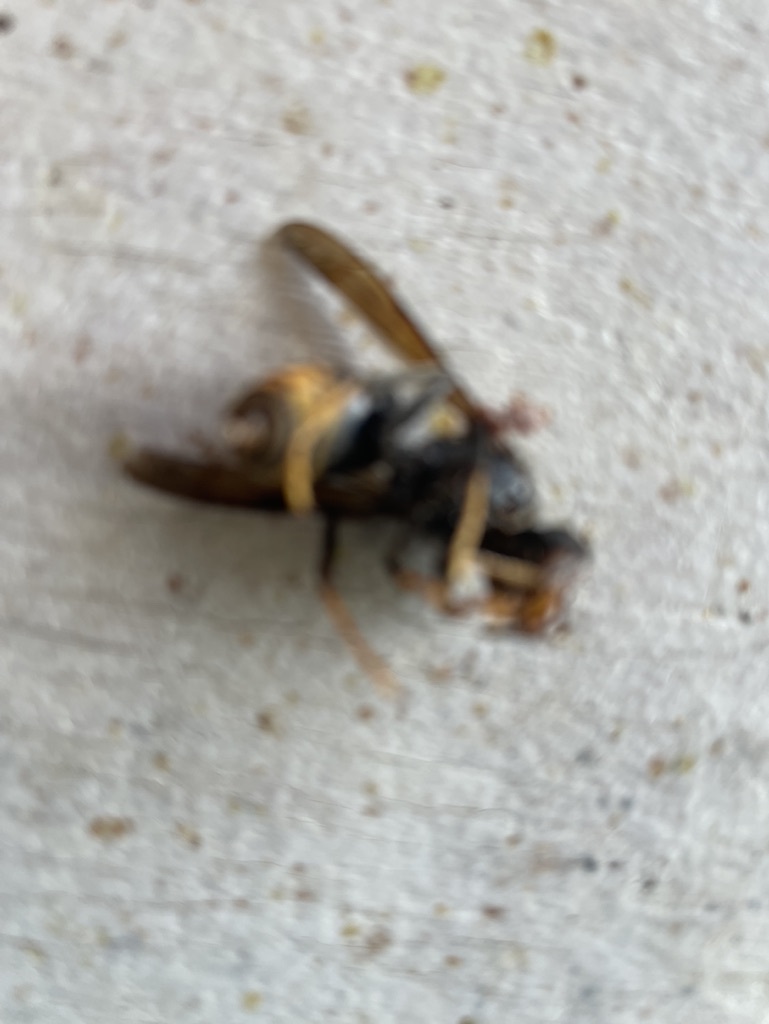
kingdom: Animalia
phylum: Arthropoda
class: Insecta
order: Hymenoptera
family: Vespidae
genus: Vespa
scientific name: Vespa velutina
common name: Asian hornet
